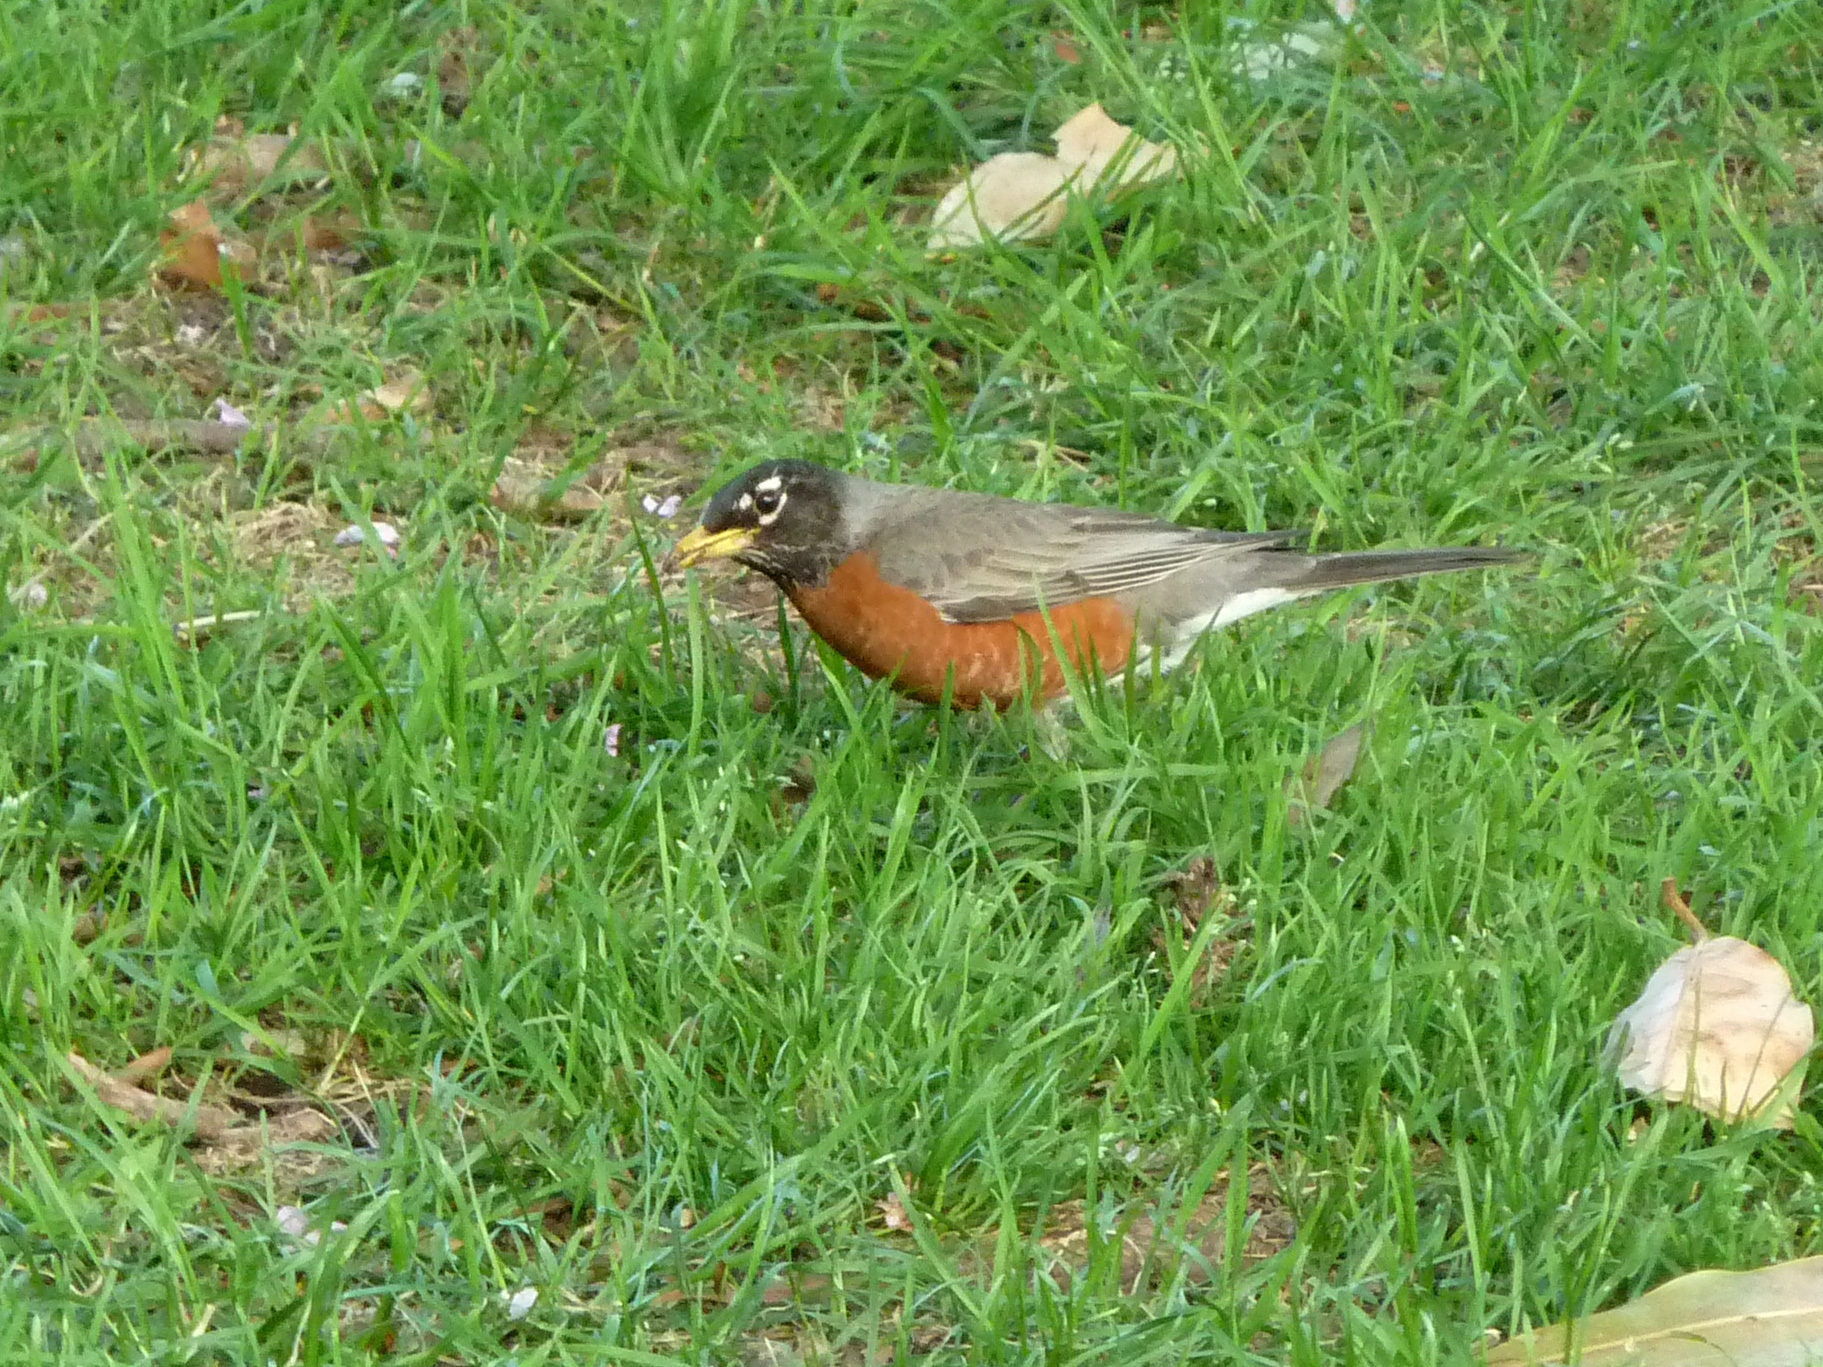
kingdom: Animalia
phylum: Chordata
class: Aves
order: Passeriformes
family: Turdidae
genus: Turdus
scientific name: Turdus migratorius
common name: American robin
